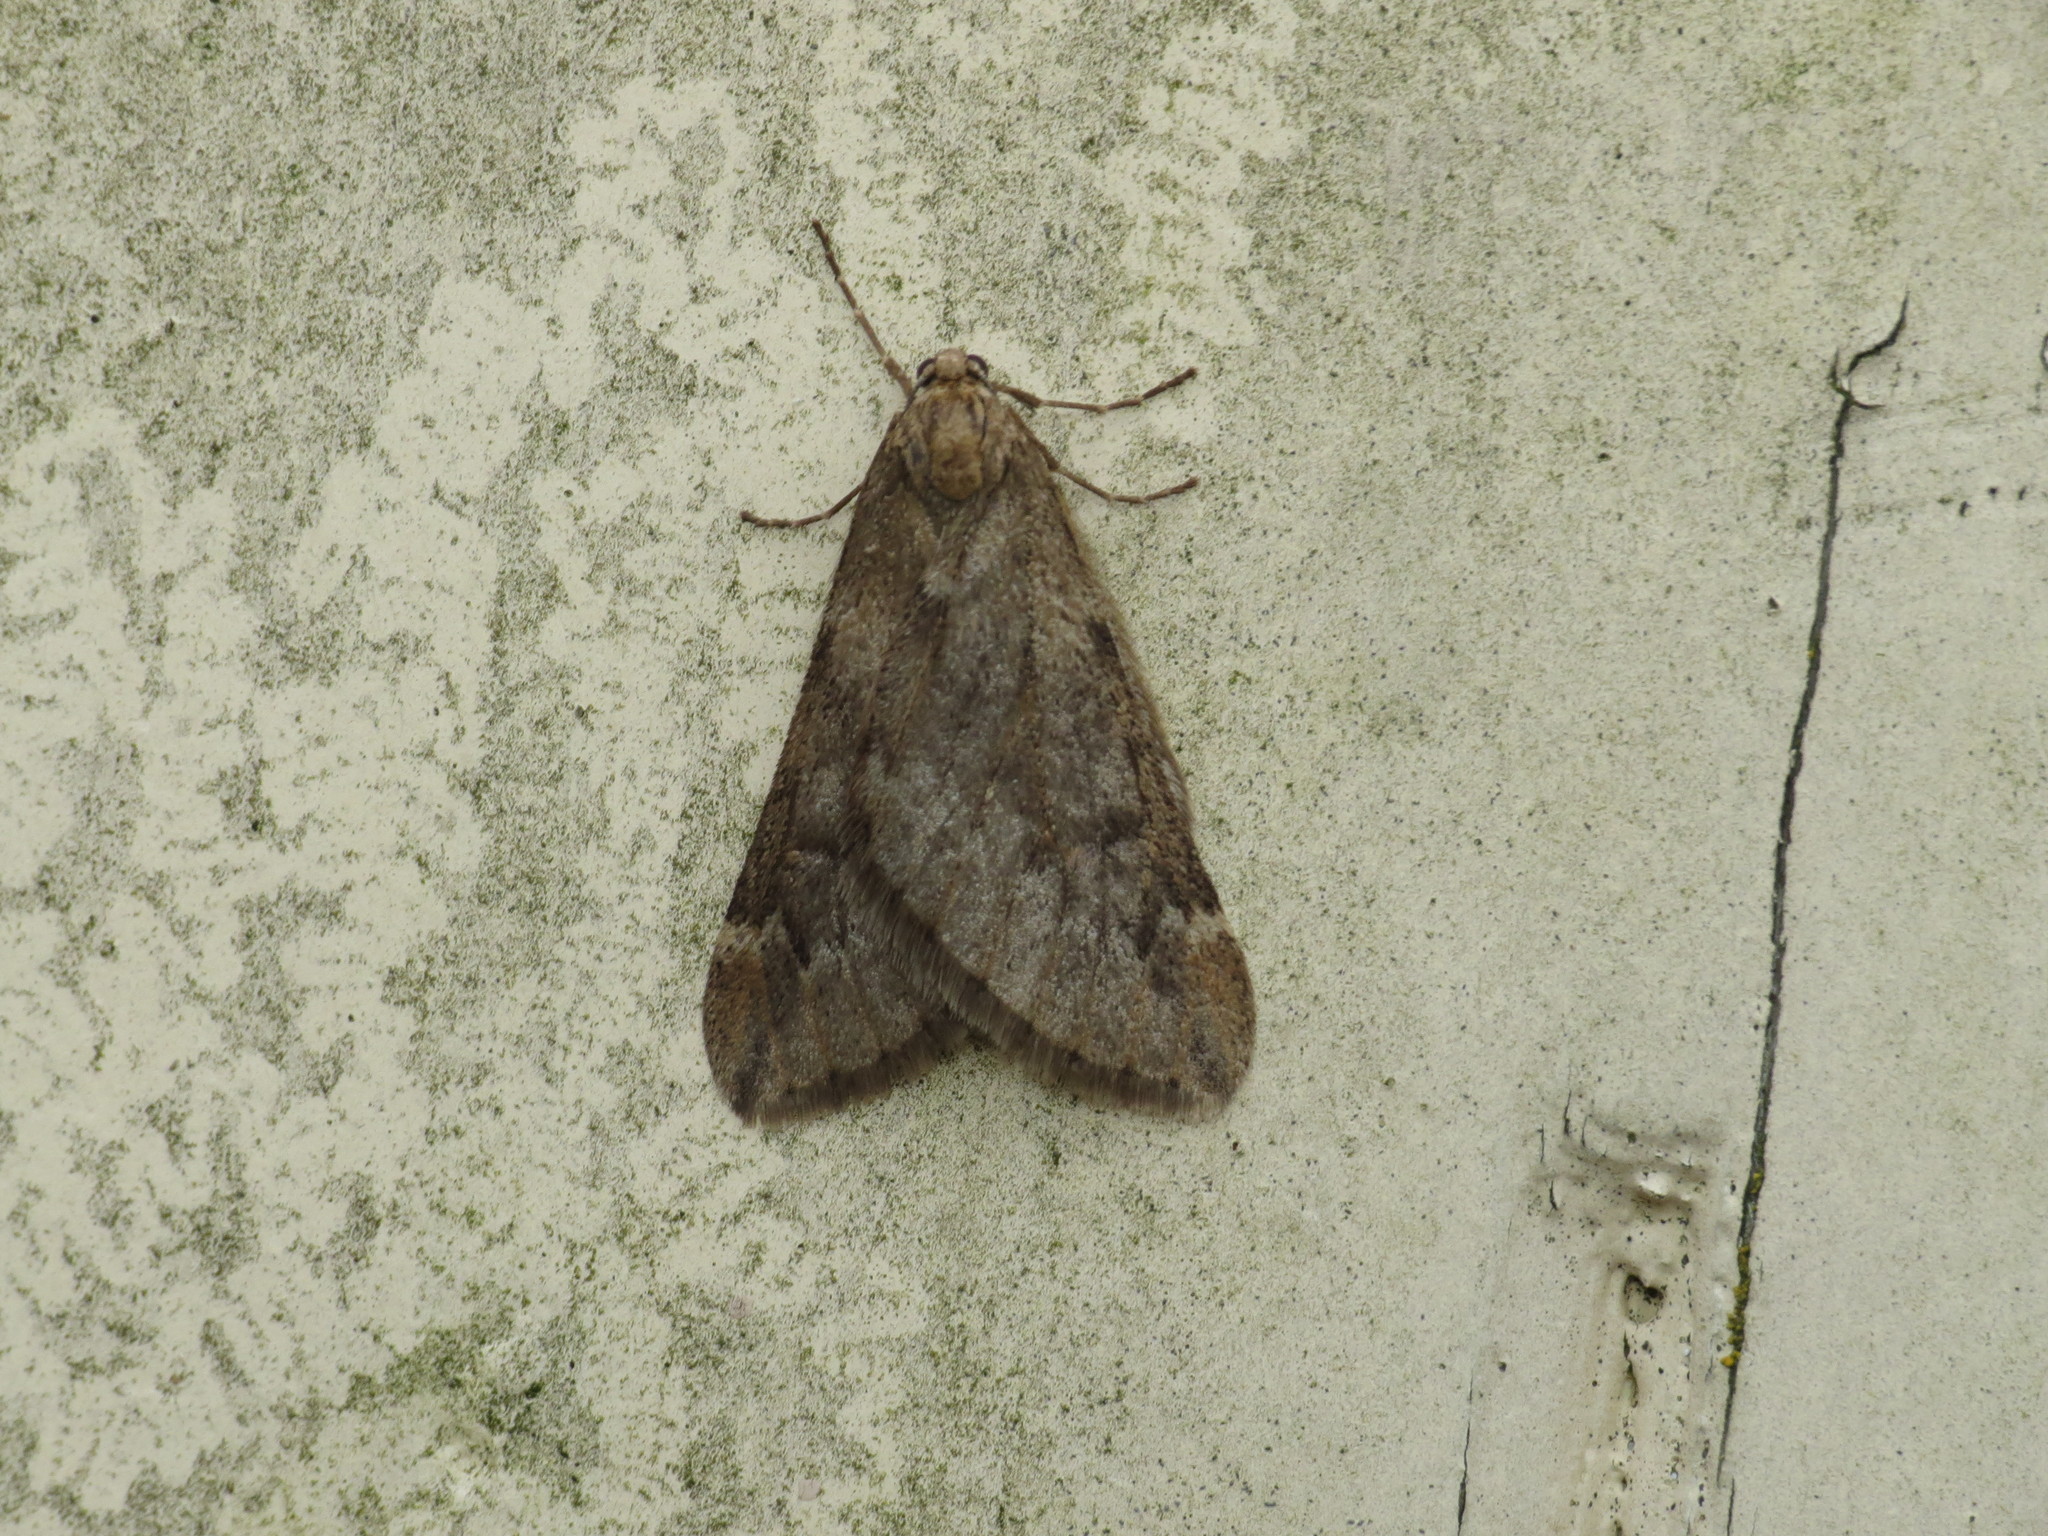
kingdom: Animalia
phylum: Arthropoda
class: Insecta
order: Lepidoptera
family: Geometridae
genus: Alsophila
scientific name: Alsophila aescularia
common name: March moth
